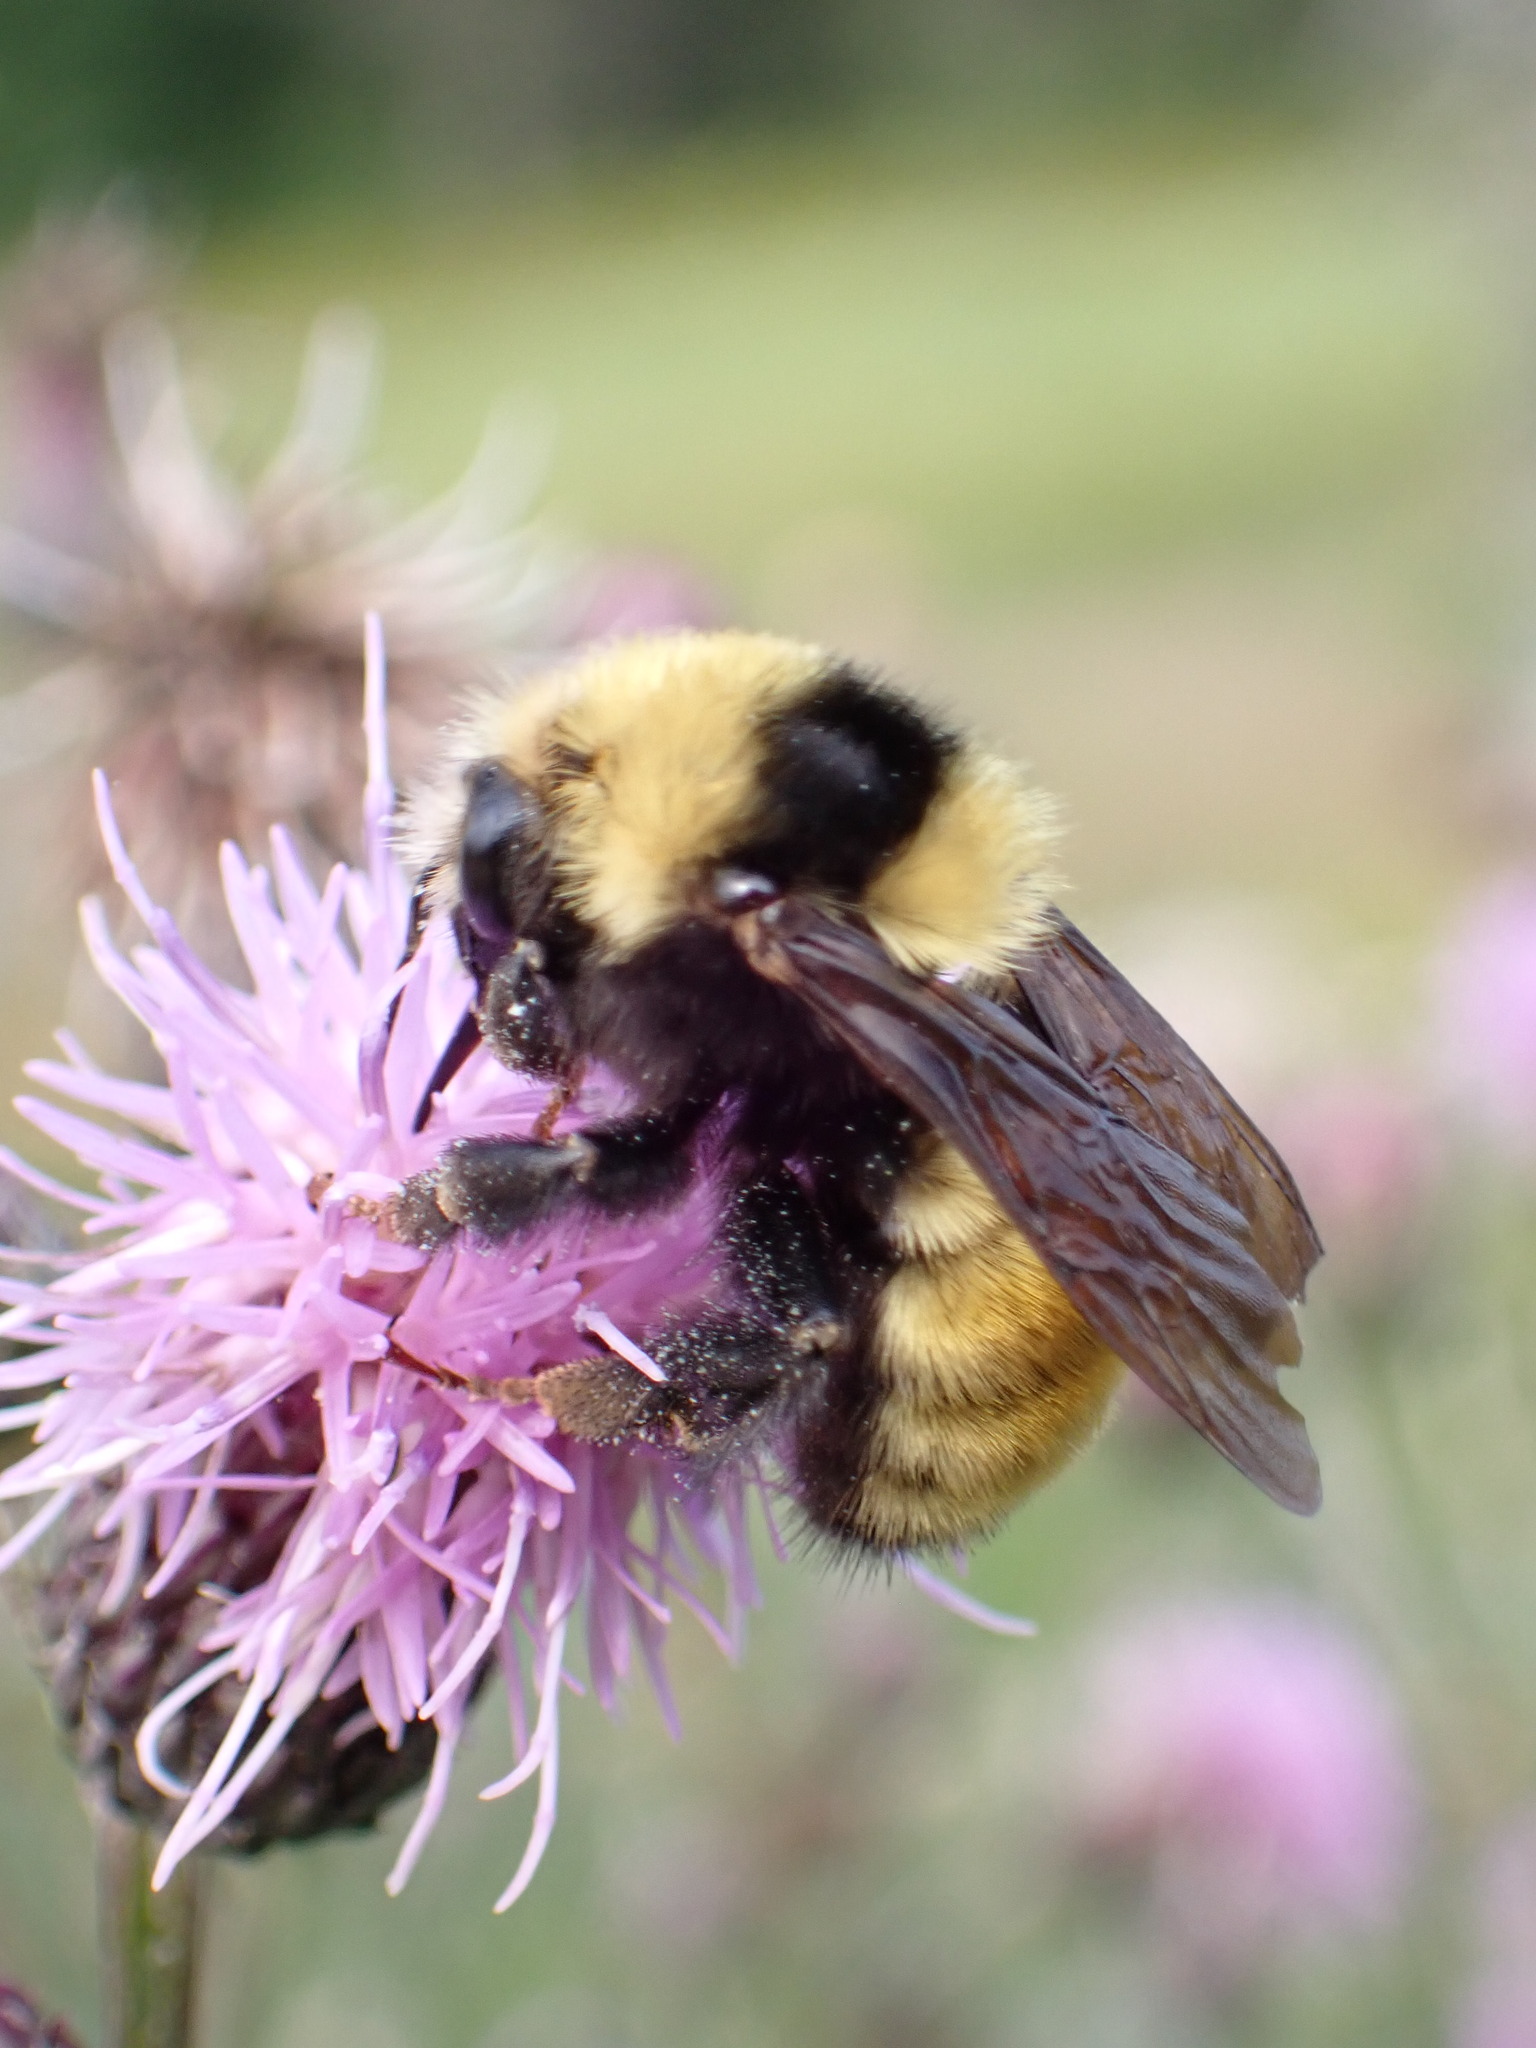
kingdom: Animalia
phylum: Arthropoda
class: Insecta
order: Hymenoptera
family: Apidae
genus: Bombus
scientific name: Bombus borealis
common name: Northern amber bumble bee
